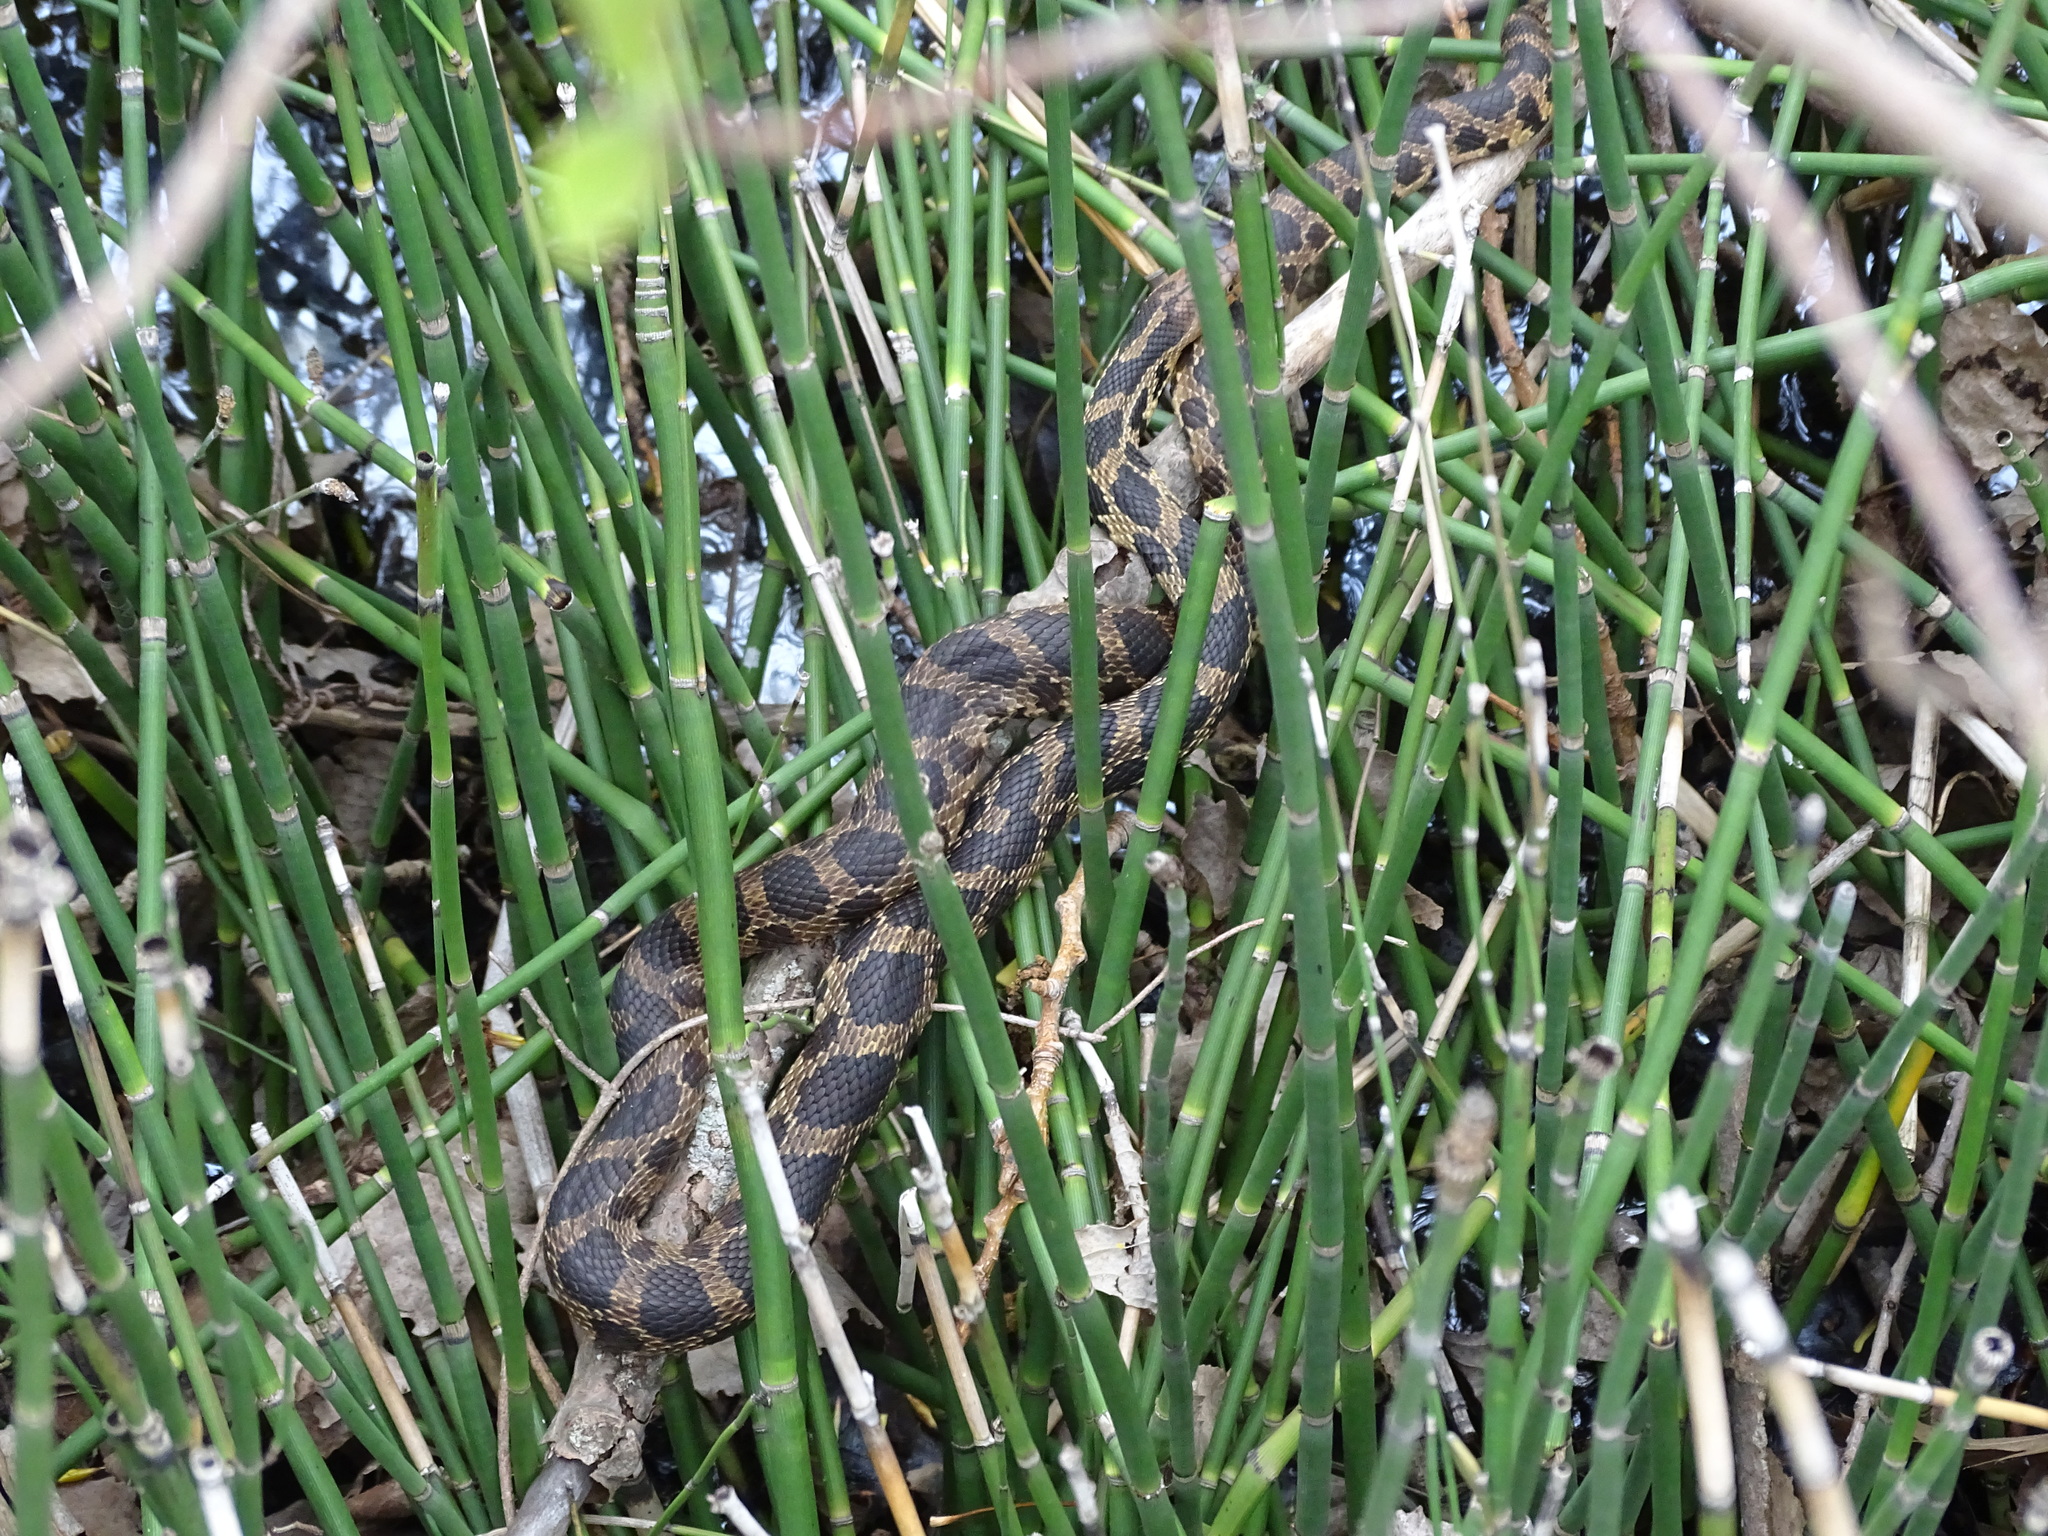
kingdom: Animalia
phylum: Chordata
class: Squamata
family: Colubridae
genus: Pantherophis
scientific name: Pantherophis vulpinus
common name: Eastern fox snake
